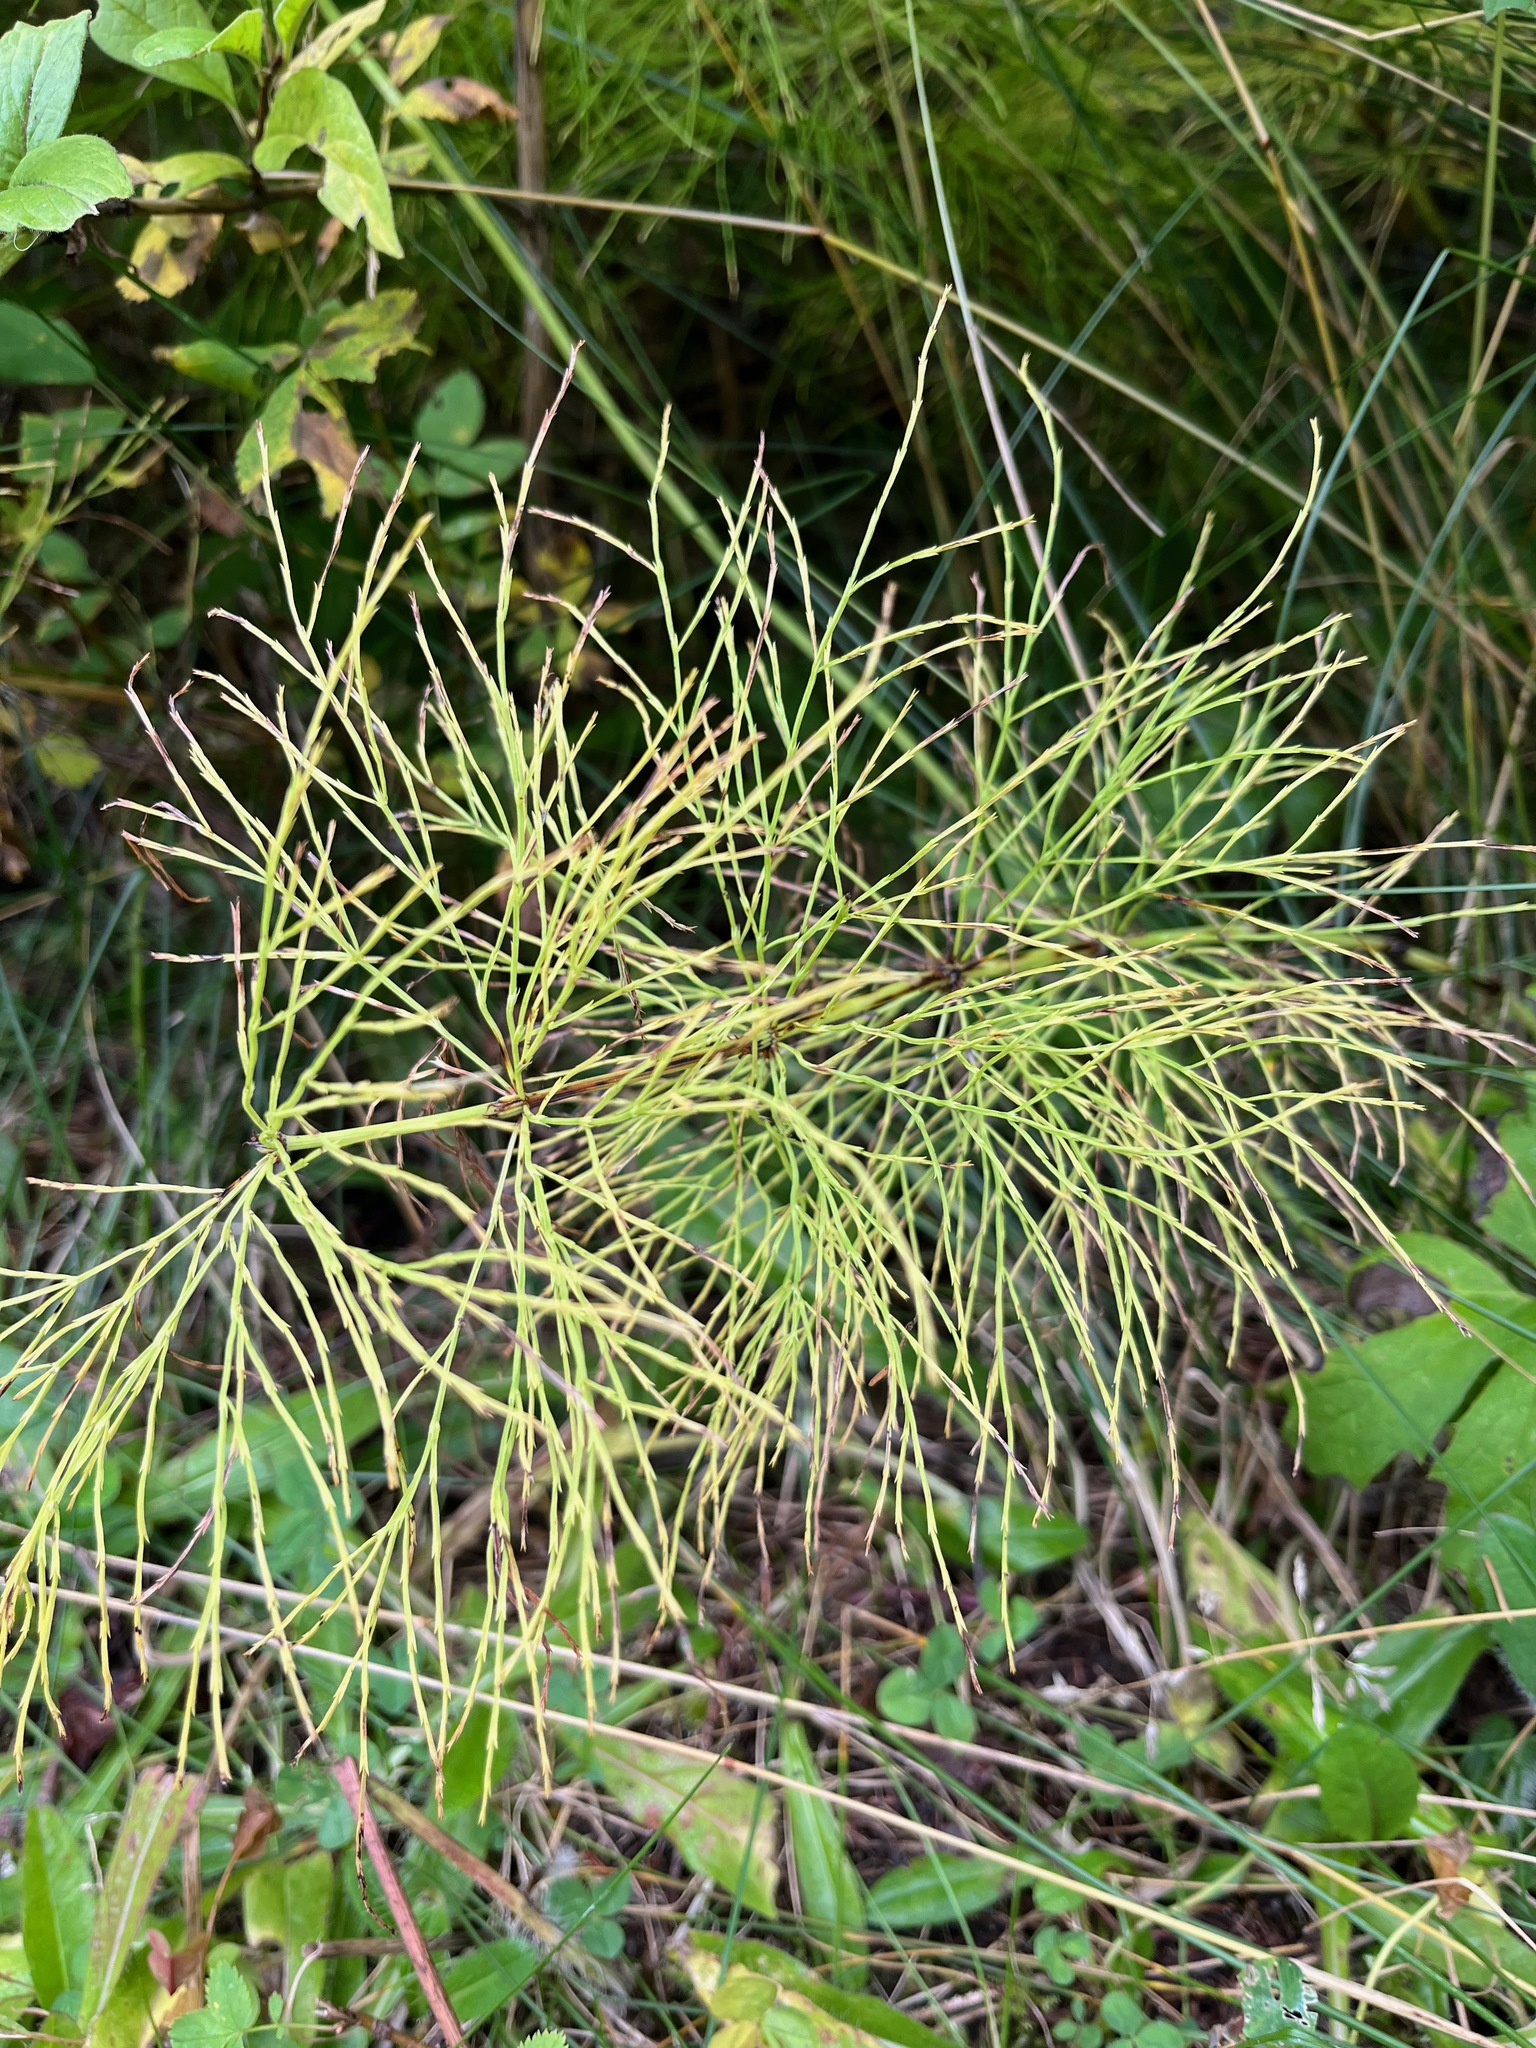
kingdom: Plantae
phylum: Tracheophyta
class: Polypodiopsida
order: Equisetales
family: Equisetaceae
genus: Equisetum
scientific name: Equisetum sylvaticum
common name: Wood horsetail
